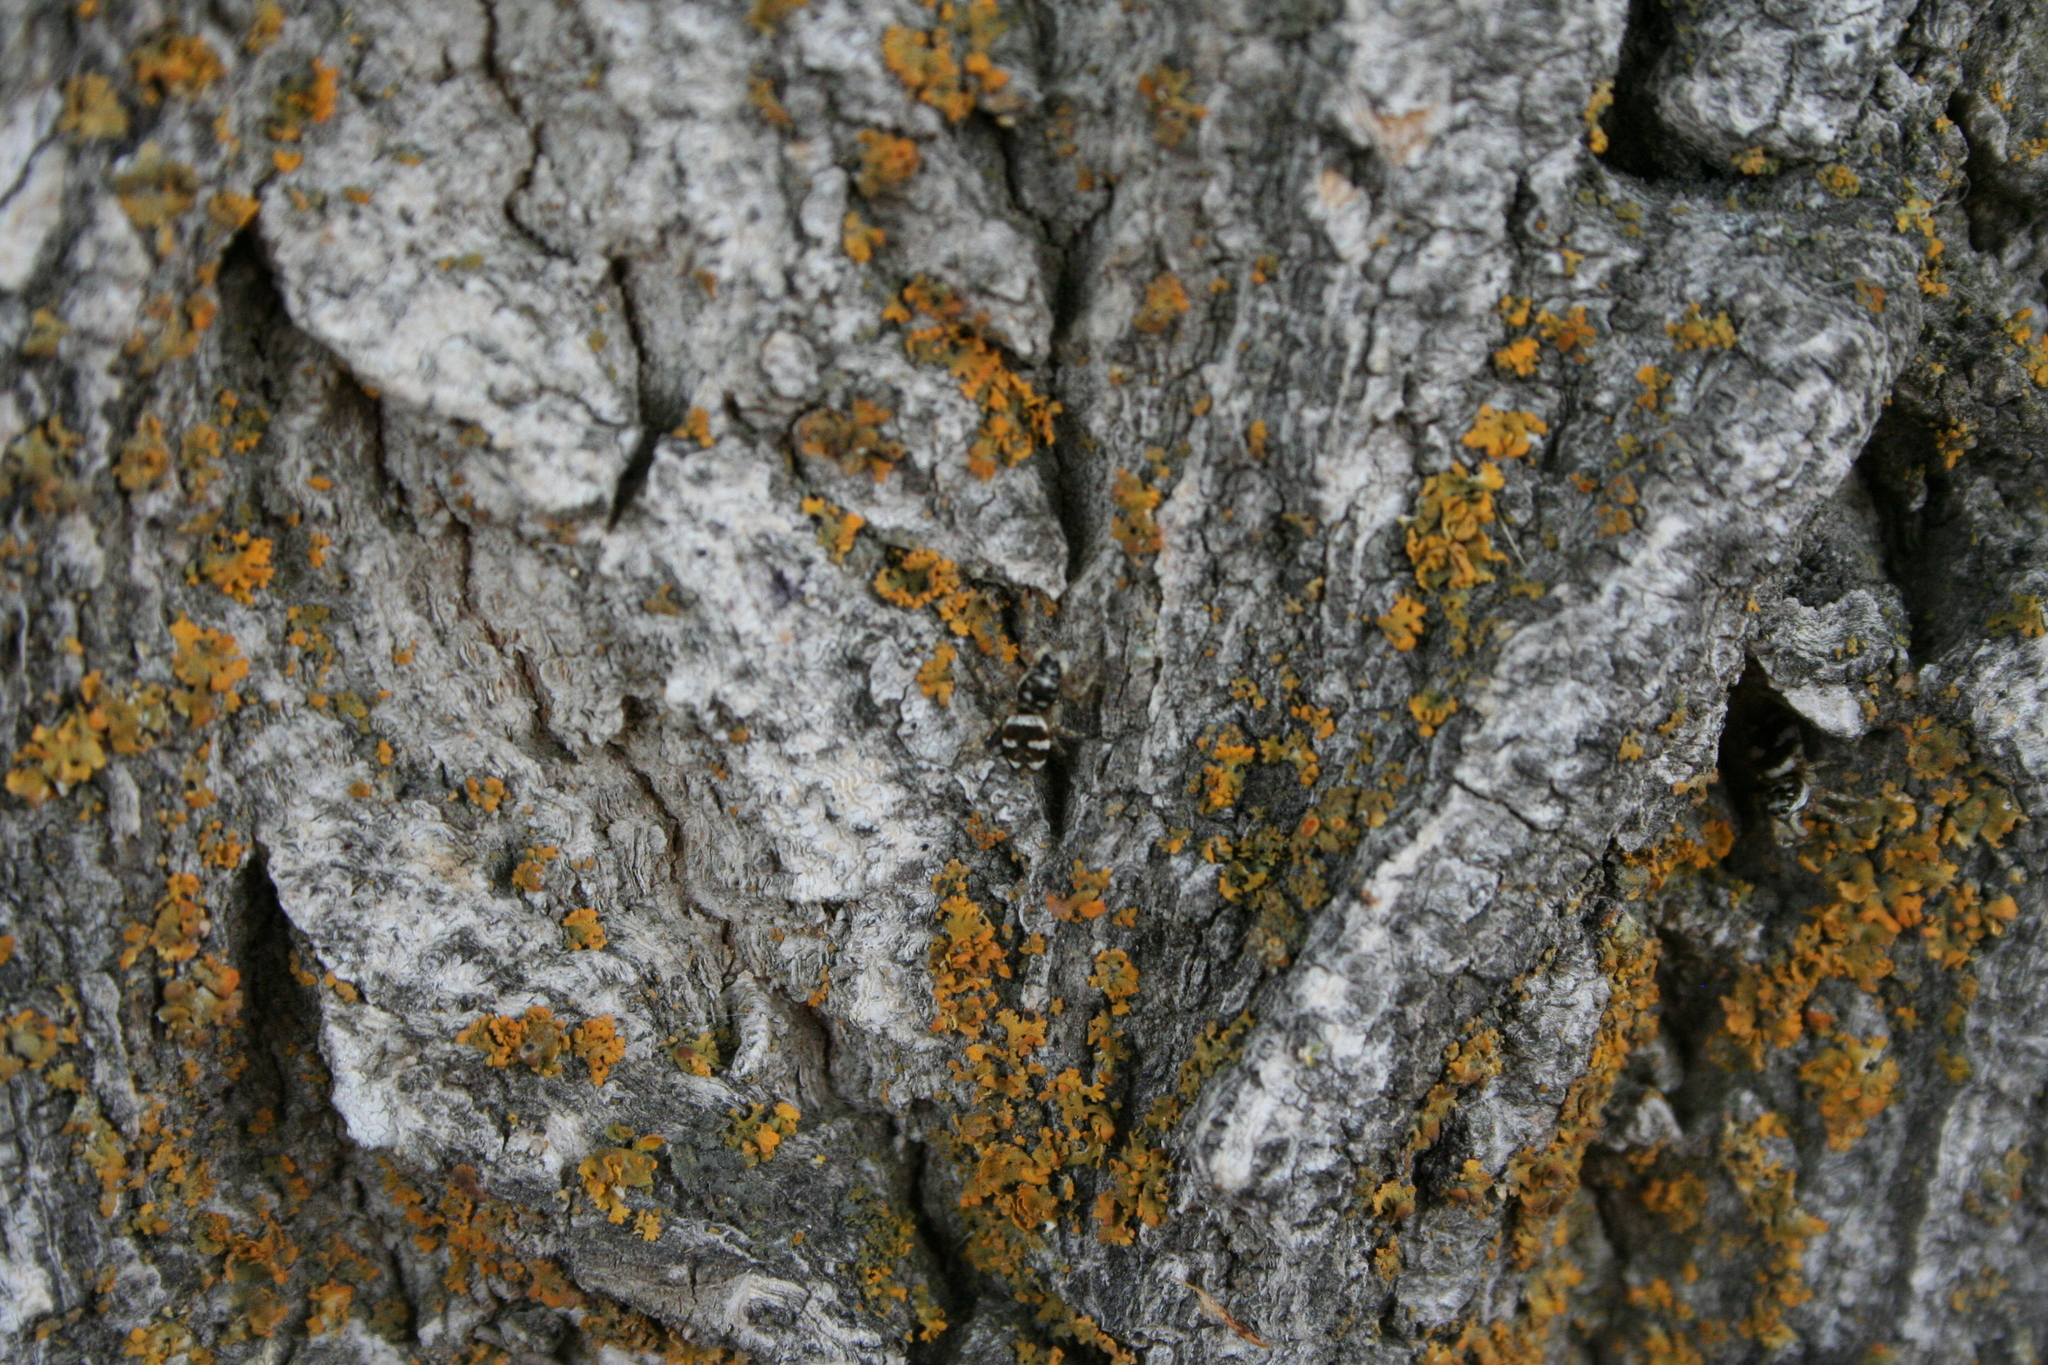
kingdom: Animalia
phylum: Arthropoda
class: Arachnida
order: Araneae
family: Salticidae
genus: Salticus
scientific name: Salticus scenicus
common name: Zebra jumper
